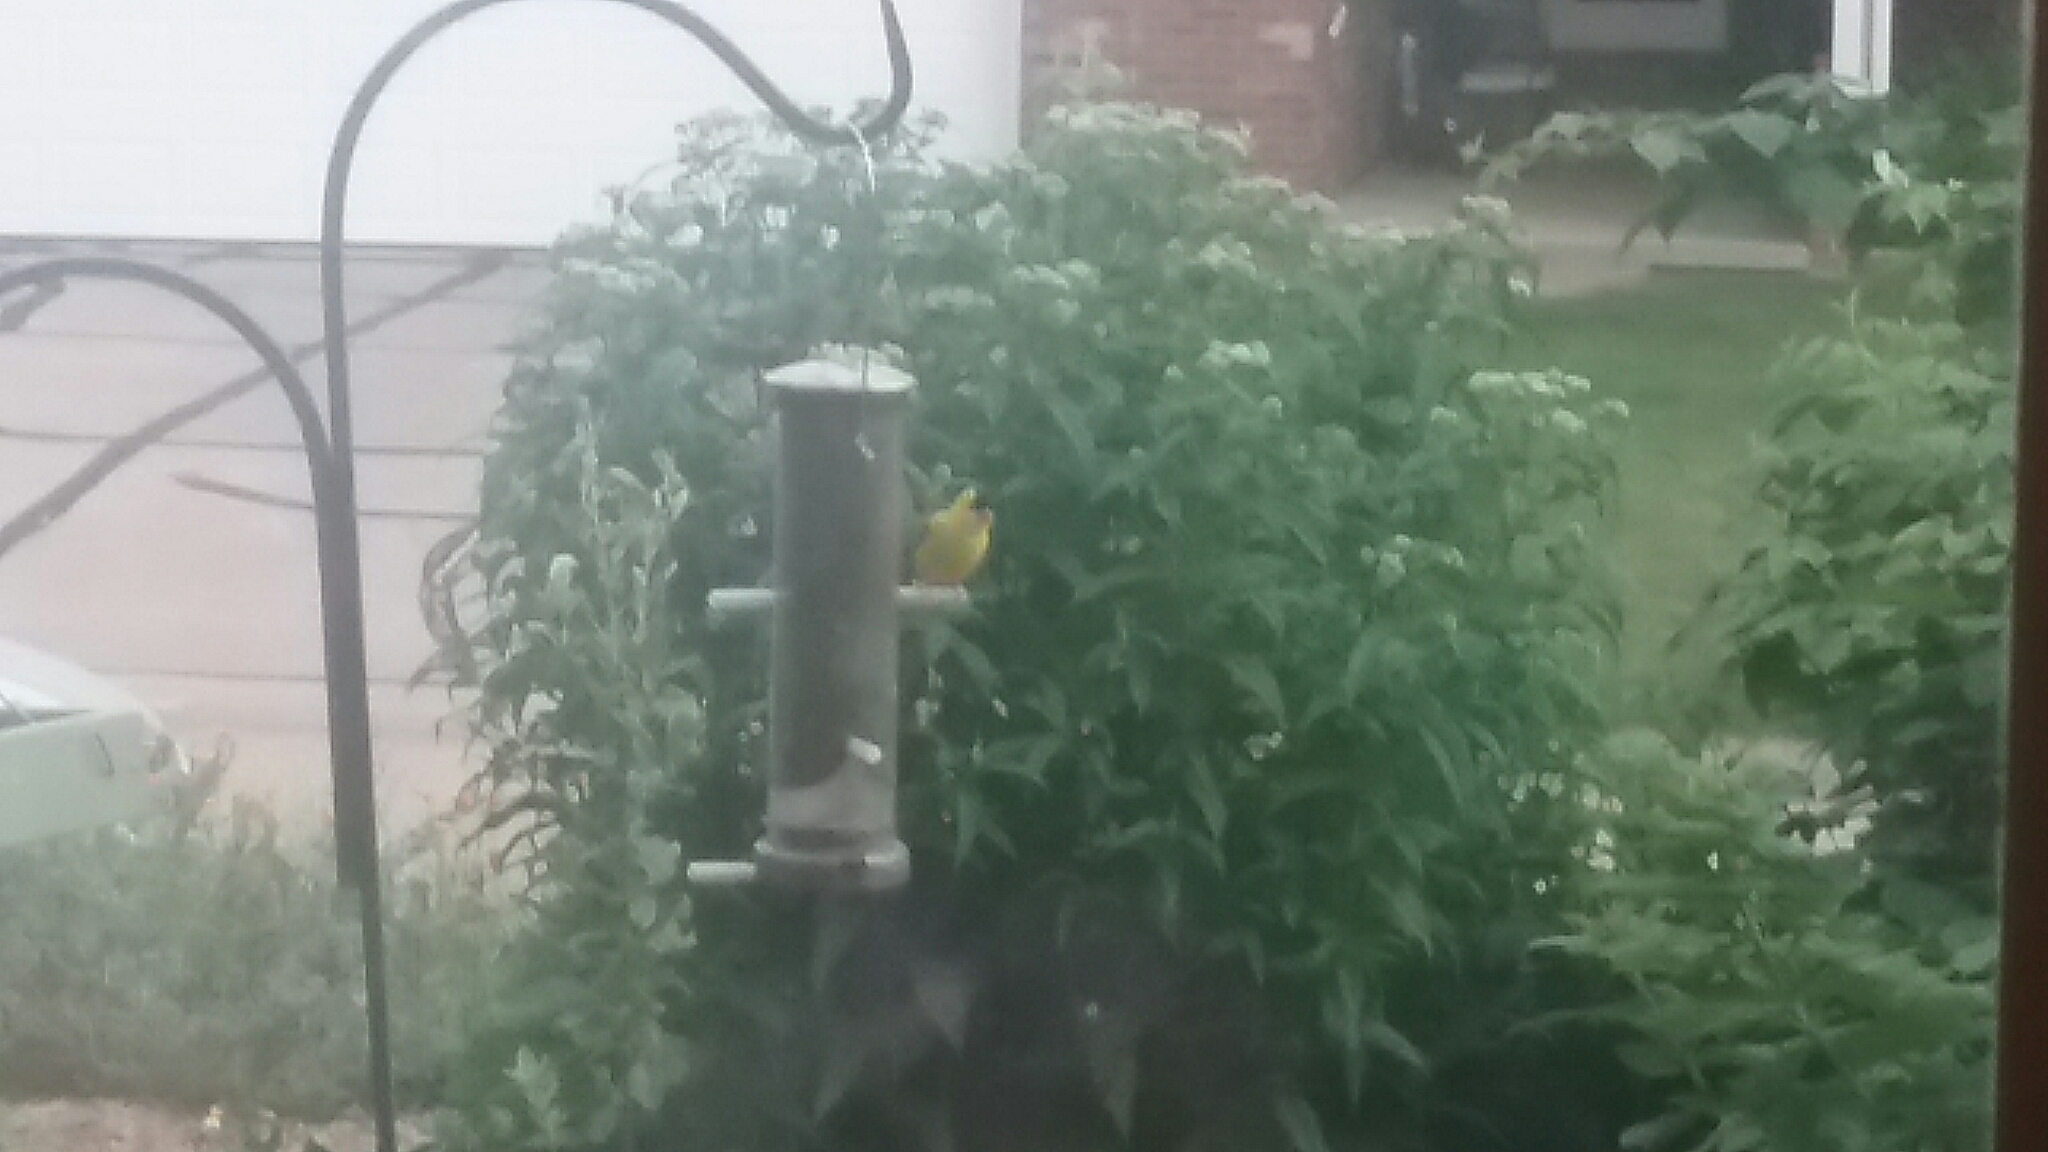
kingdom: Animalia
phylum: Chordata
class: Aves
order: Passeriformes
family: Fringillidae
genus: Spinus
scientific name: Spinus tristis
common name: American goldfinch
